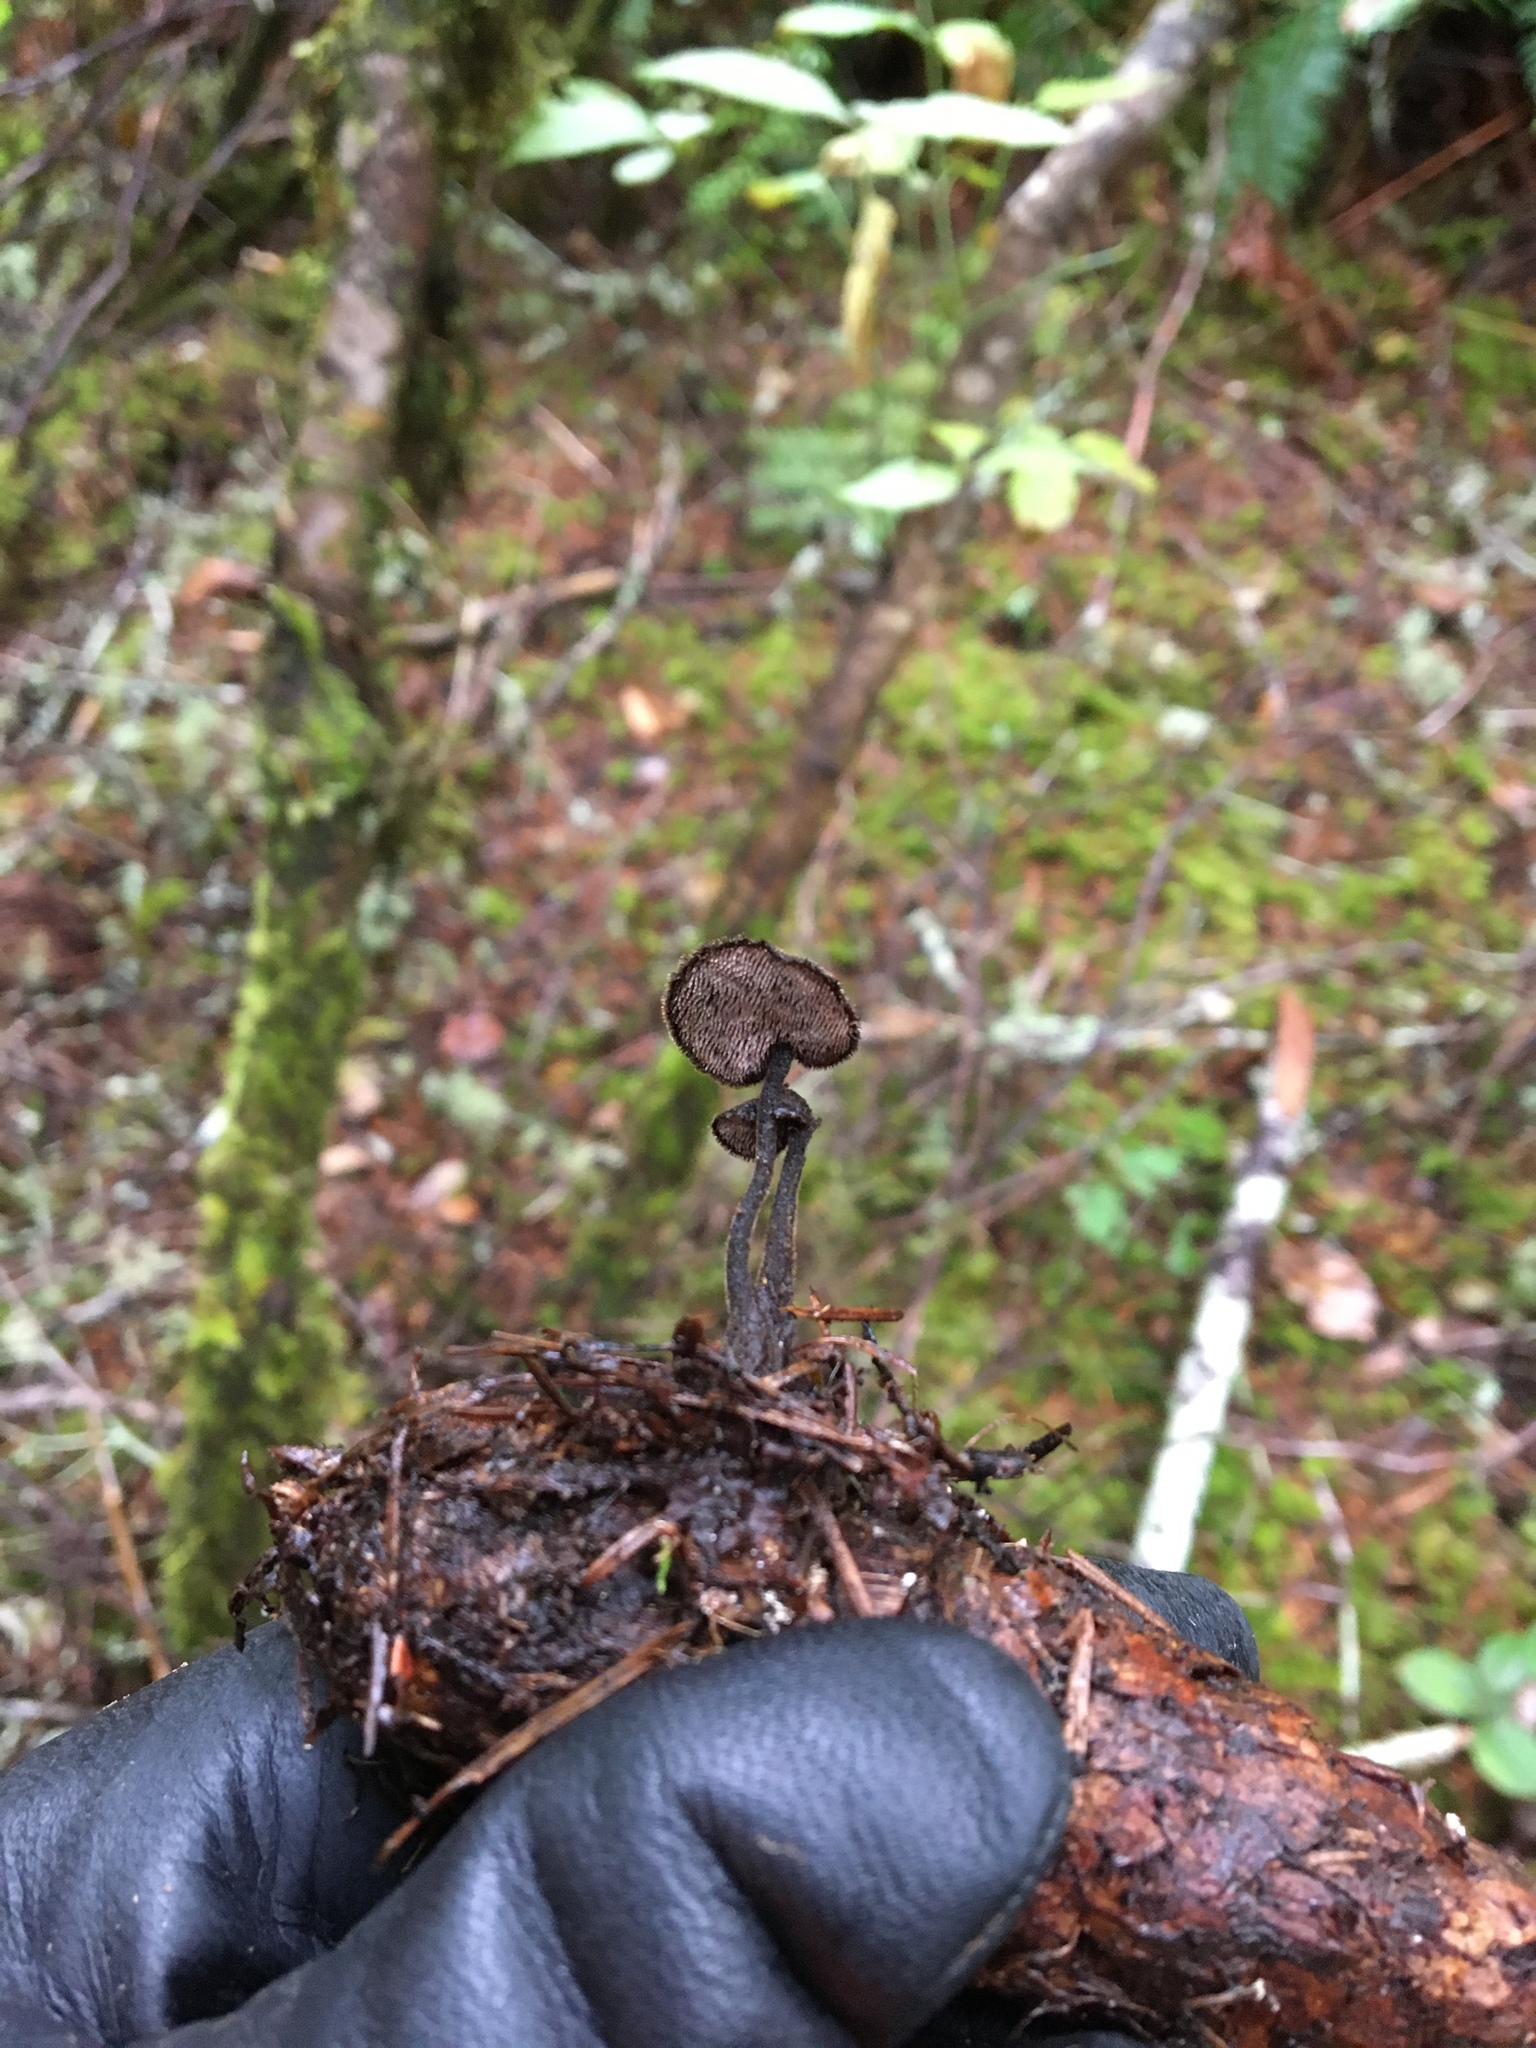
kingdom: Fungi
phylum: Basidiomycota
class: Agaricomycetes
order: Russulales
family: Auriscalpiaceae
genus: Auriscalpium
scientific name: Auriscalpium vulgare
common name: Earpick fungus
